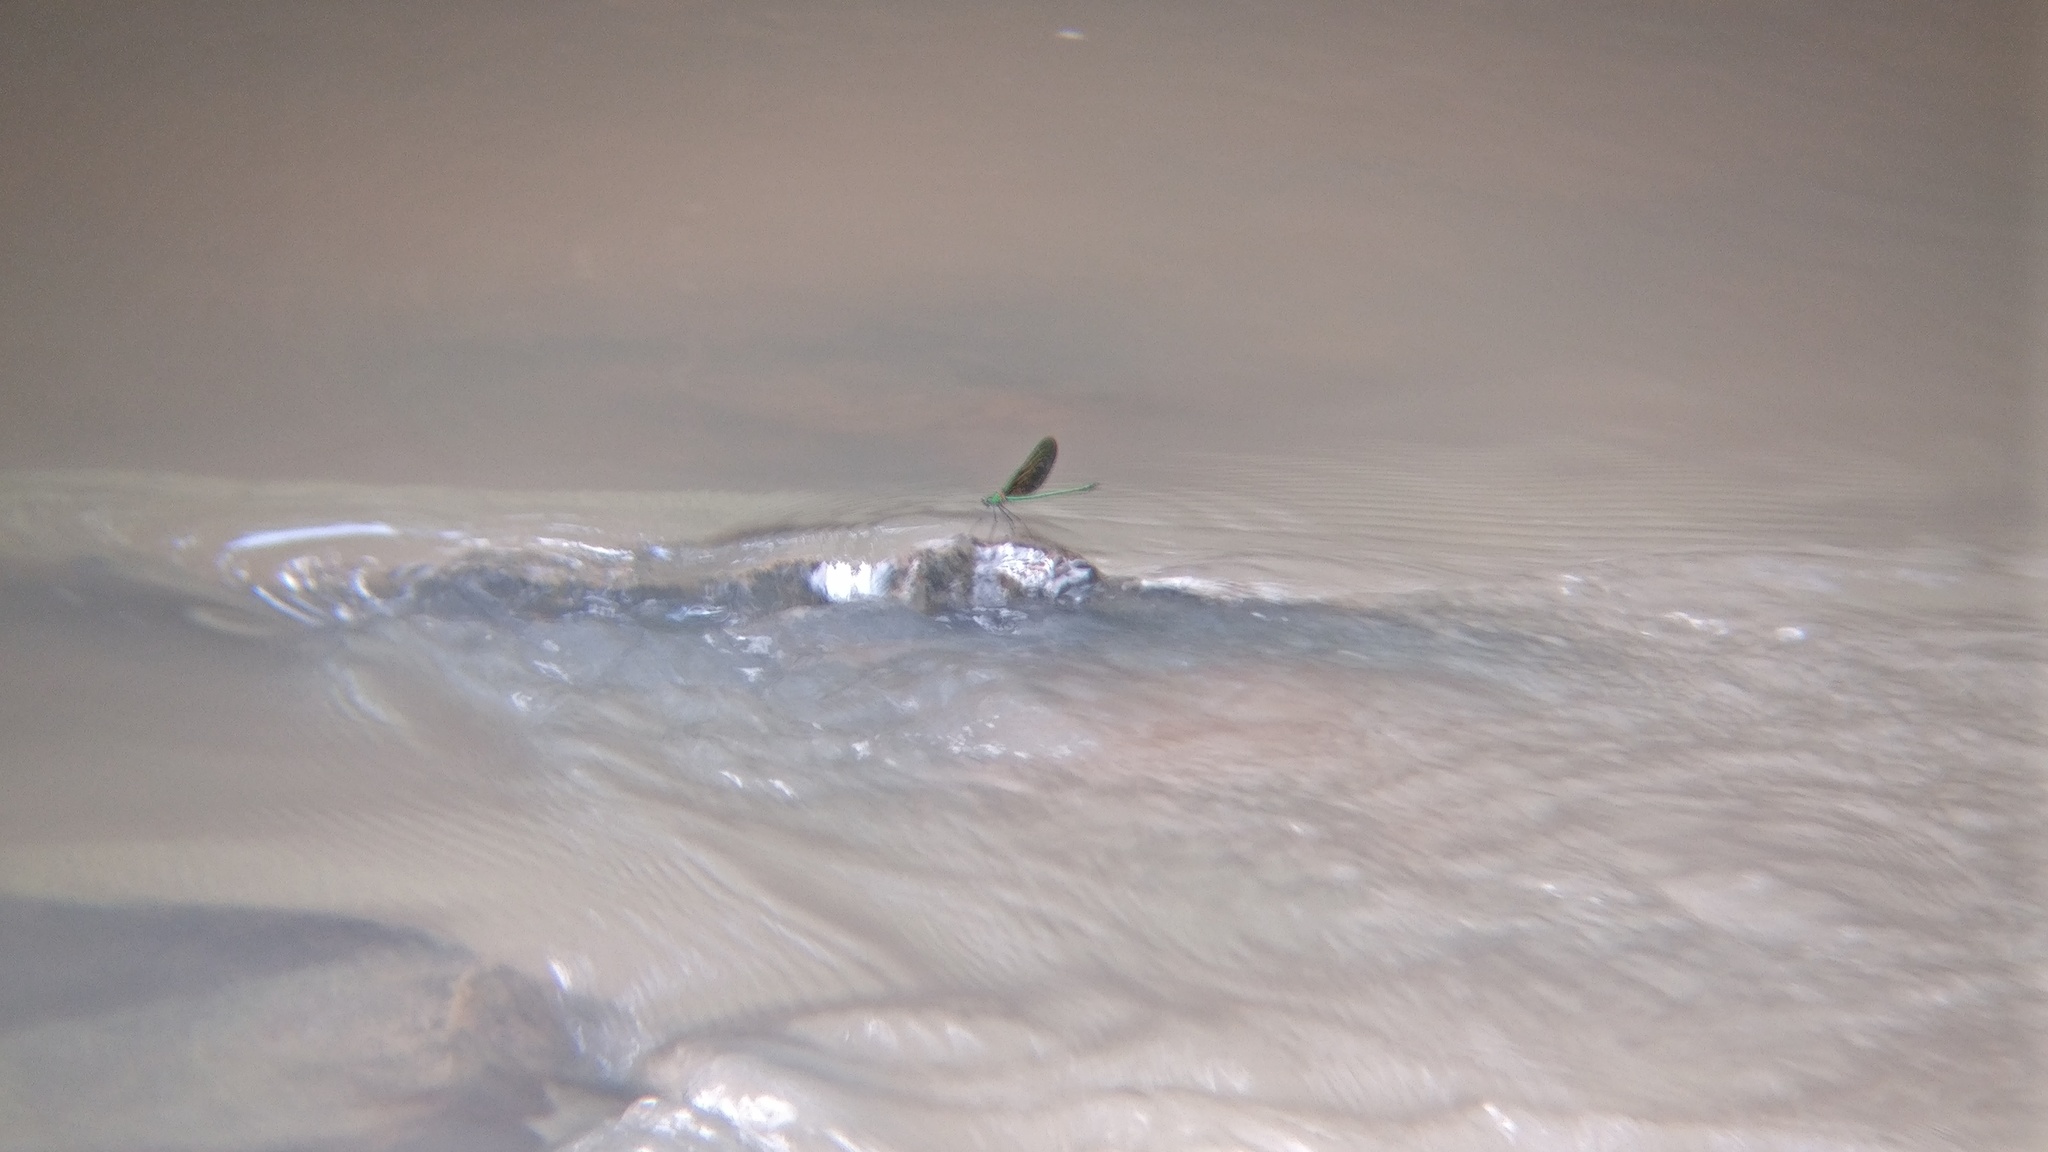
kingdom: Animalia
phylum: Arthropoda
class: Insecta
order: Odonata
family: Calopterygidae
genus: Neurobasis
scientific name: Neurobasis chinensis
